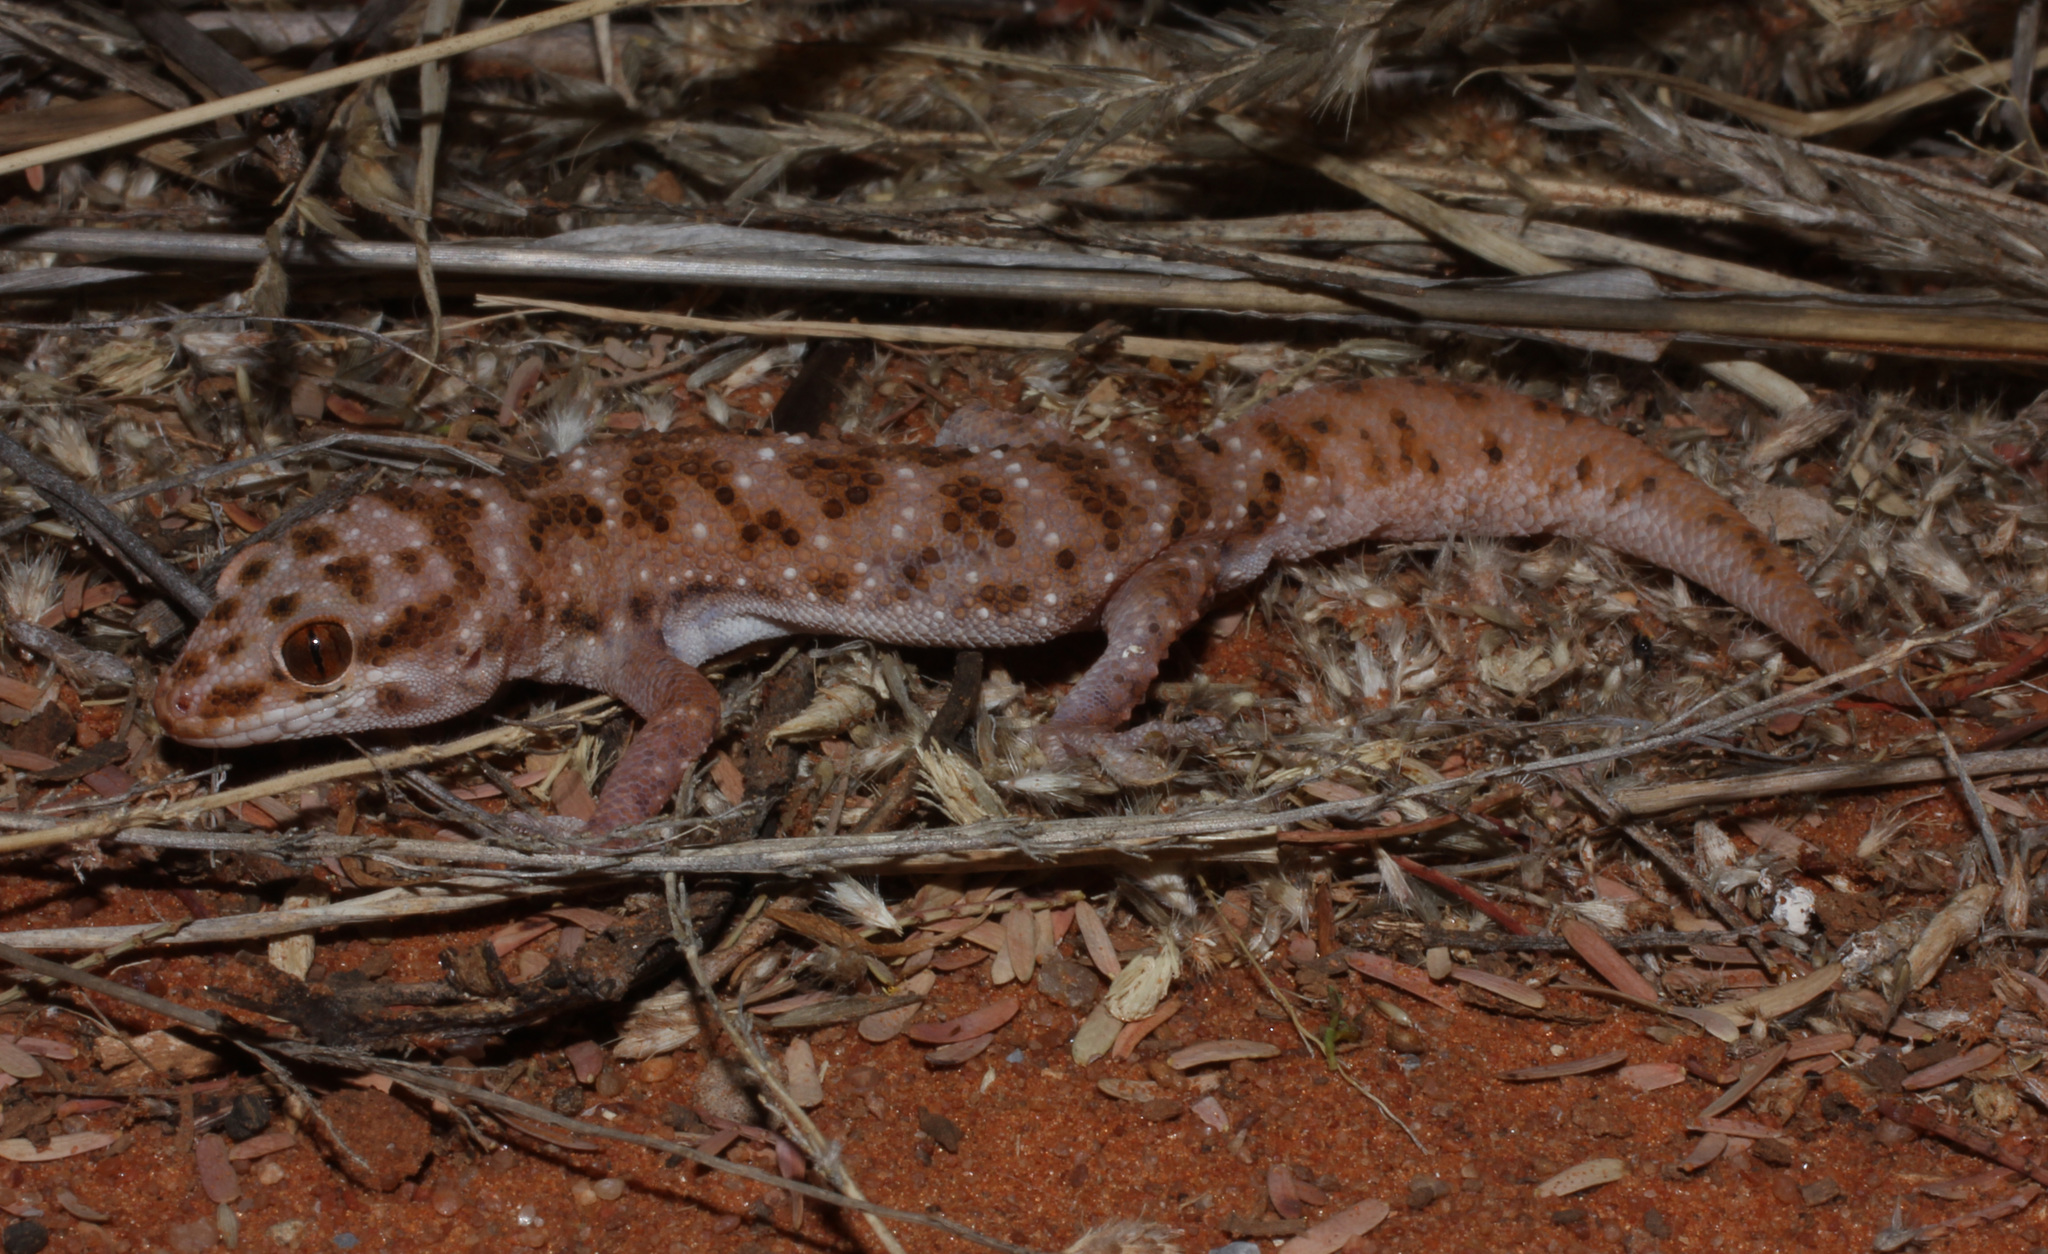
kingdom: Animalia
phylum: Chordata
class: Squamata
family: Gekkonidae
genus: Pachydactylus
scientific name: Pachydactylus capensis
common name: Cape gecko
